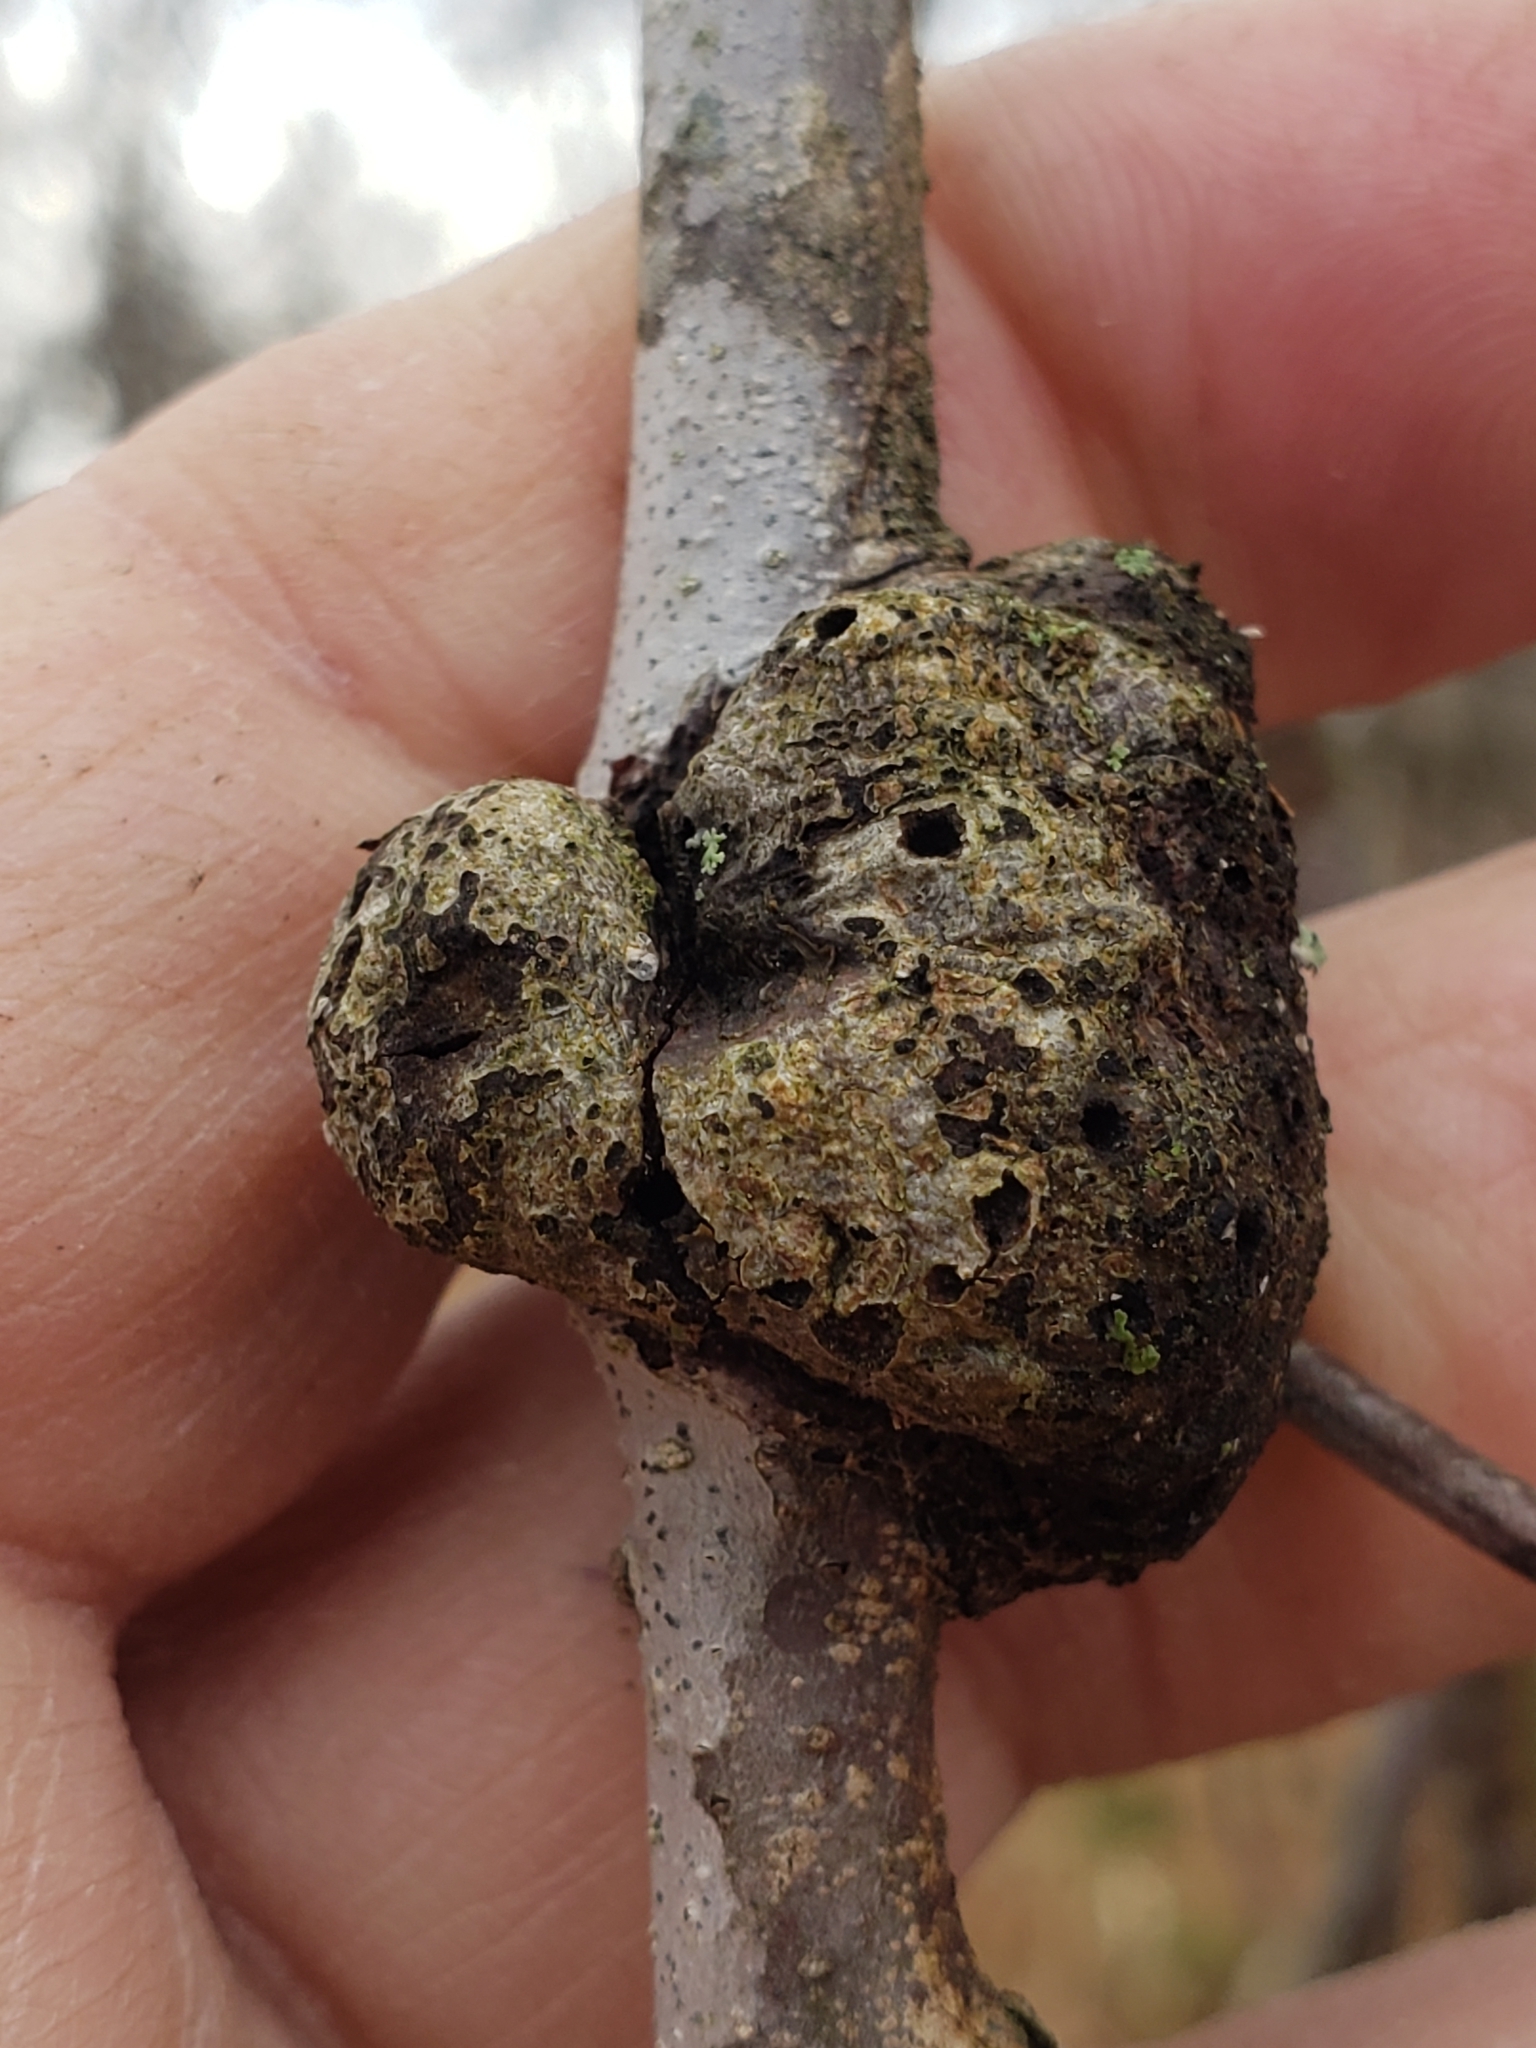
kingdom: Animalia
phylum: Arthropoda
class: Insecta
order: Hymenoptera
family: Cynipidae
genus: Callirhytis
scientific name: Callirhytis
